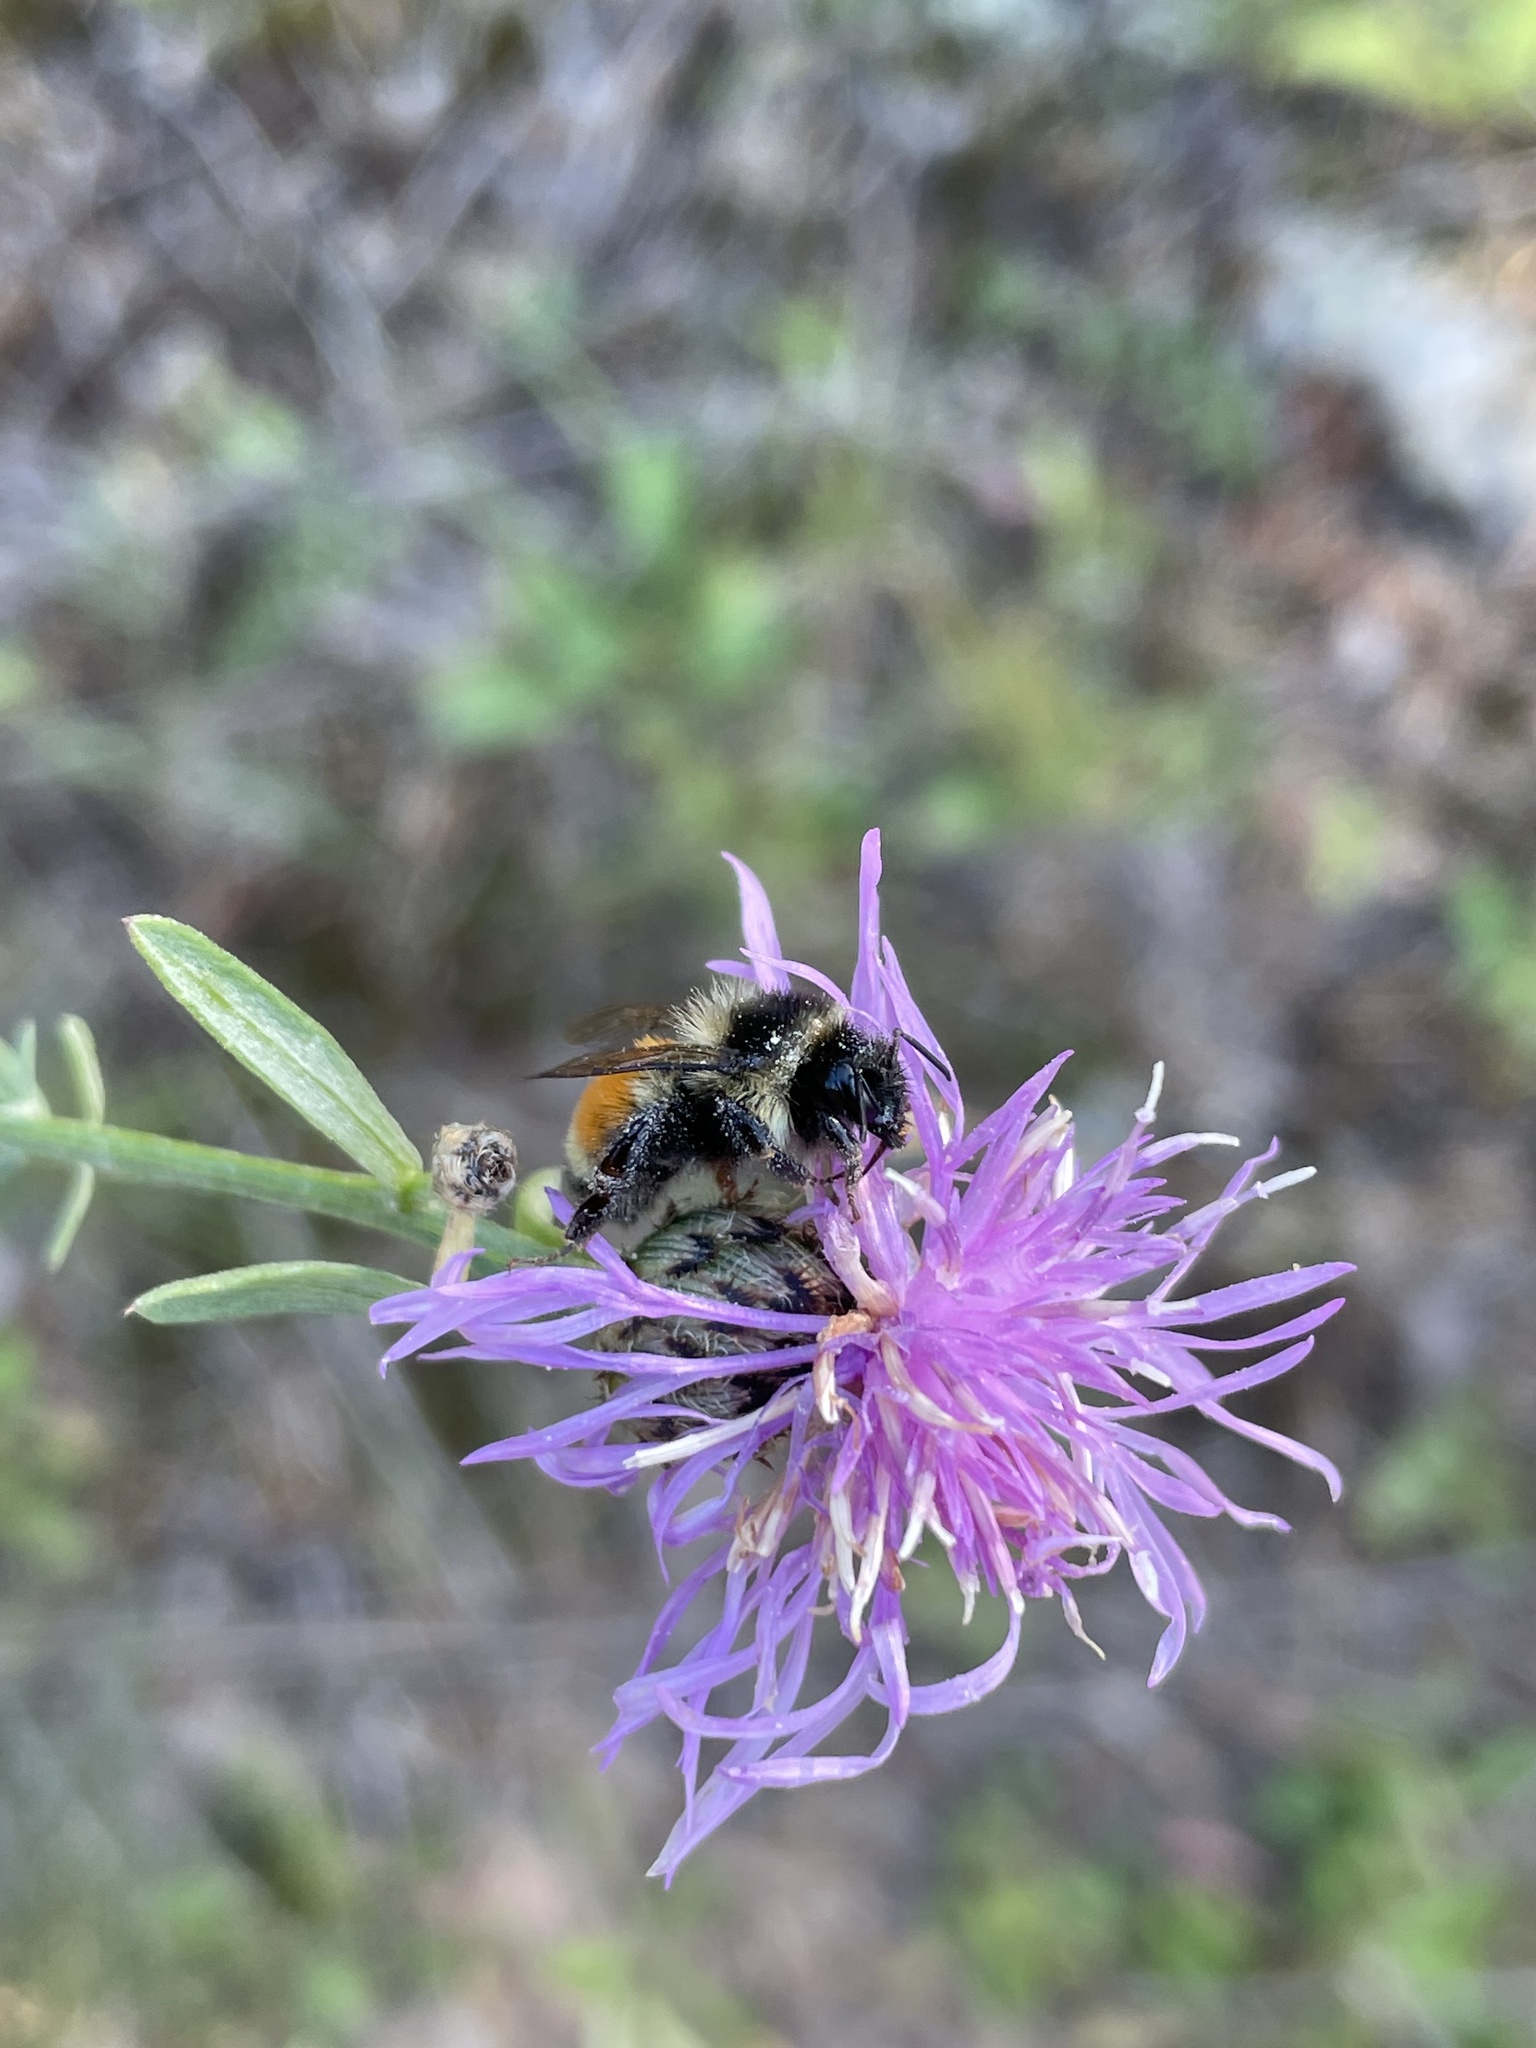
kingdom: Animalia
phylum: Arthropoda
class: Insecta
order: Hymenoptera
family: Apidae
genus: Bombus
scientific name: Bombus ternarius
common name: Tri-colored bumble bee
